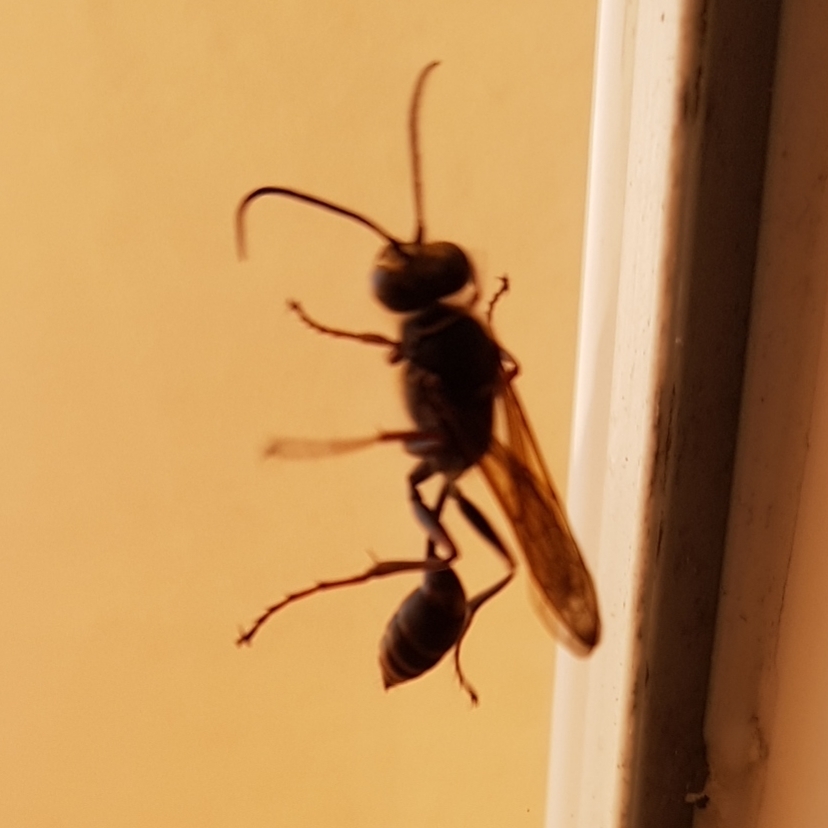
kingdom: Animalia
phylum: Arthropoda
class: Insecta
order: Hymenoptera
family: Sphecidae
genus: Sceliphron
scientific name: Sceliphron curvatum
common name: Pèlopèe
